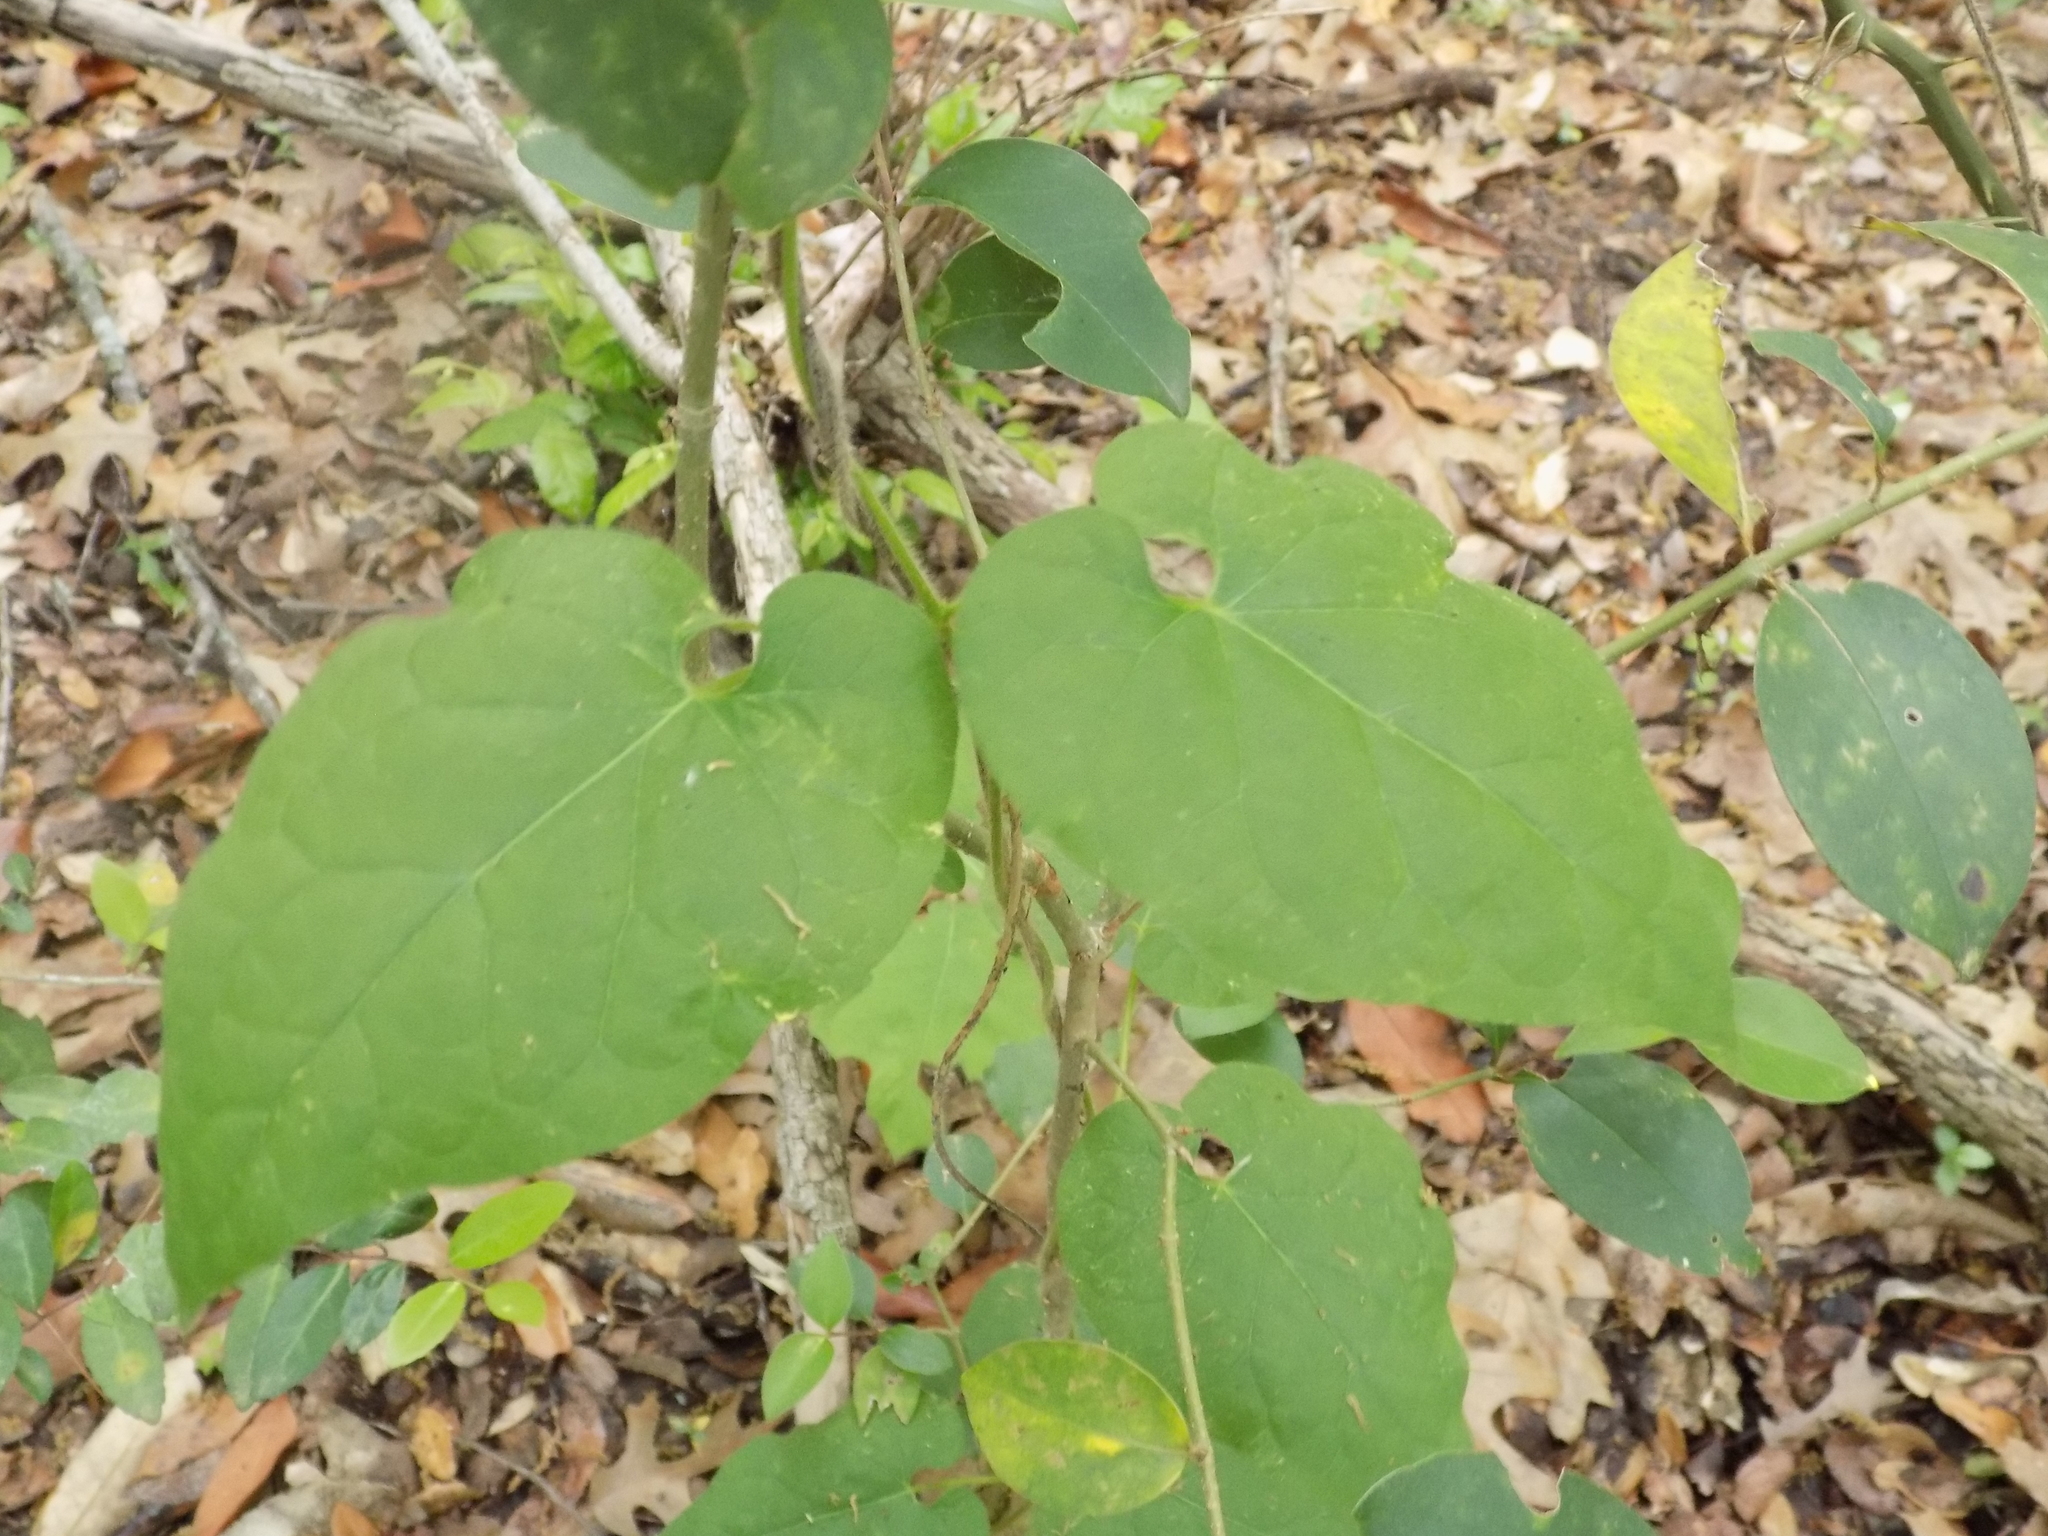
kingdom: Plantae
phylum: Tracheophyta
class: Magnoliopsida
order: Gentianales
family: Apocynaceae
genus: Dictyanthus
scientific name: Dictyanthus reticulatus
